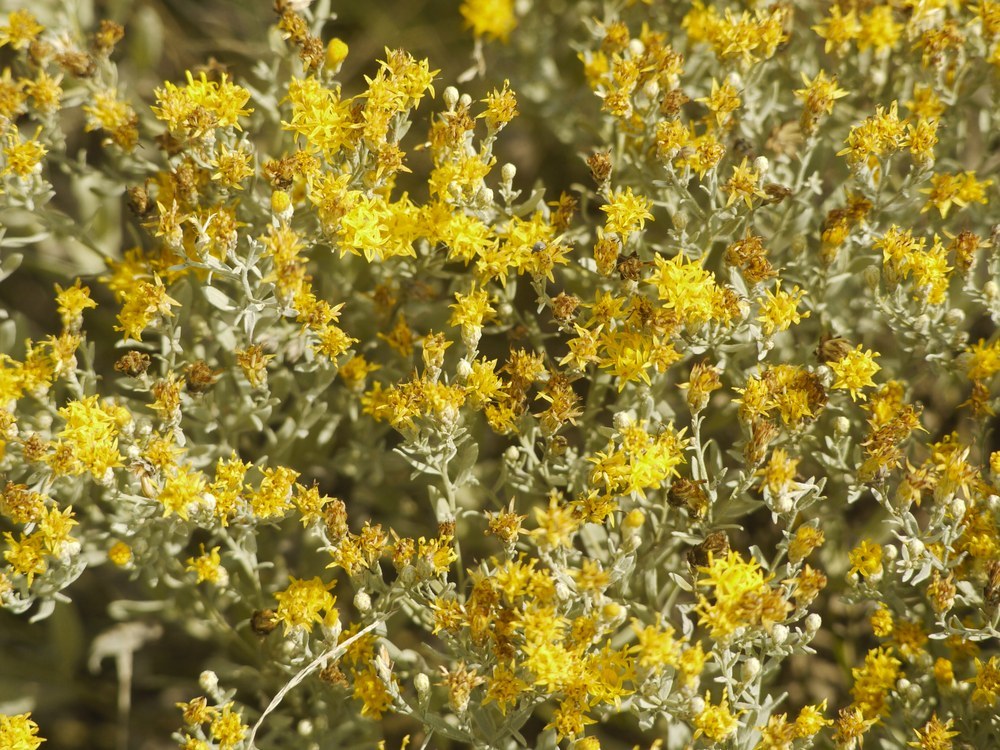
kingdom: Plantae
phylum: Tracheophyta
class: Magnoliopsida
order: Asterales
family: Asteraceae
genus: Galatella
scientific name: Galatella villosa
